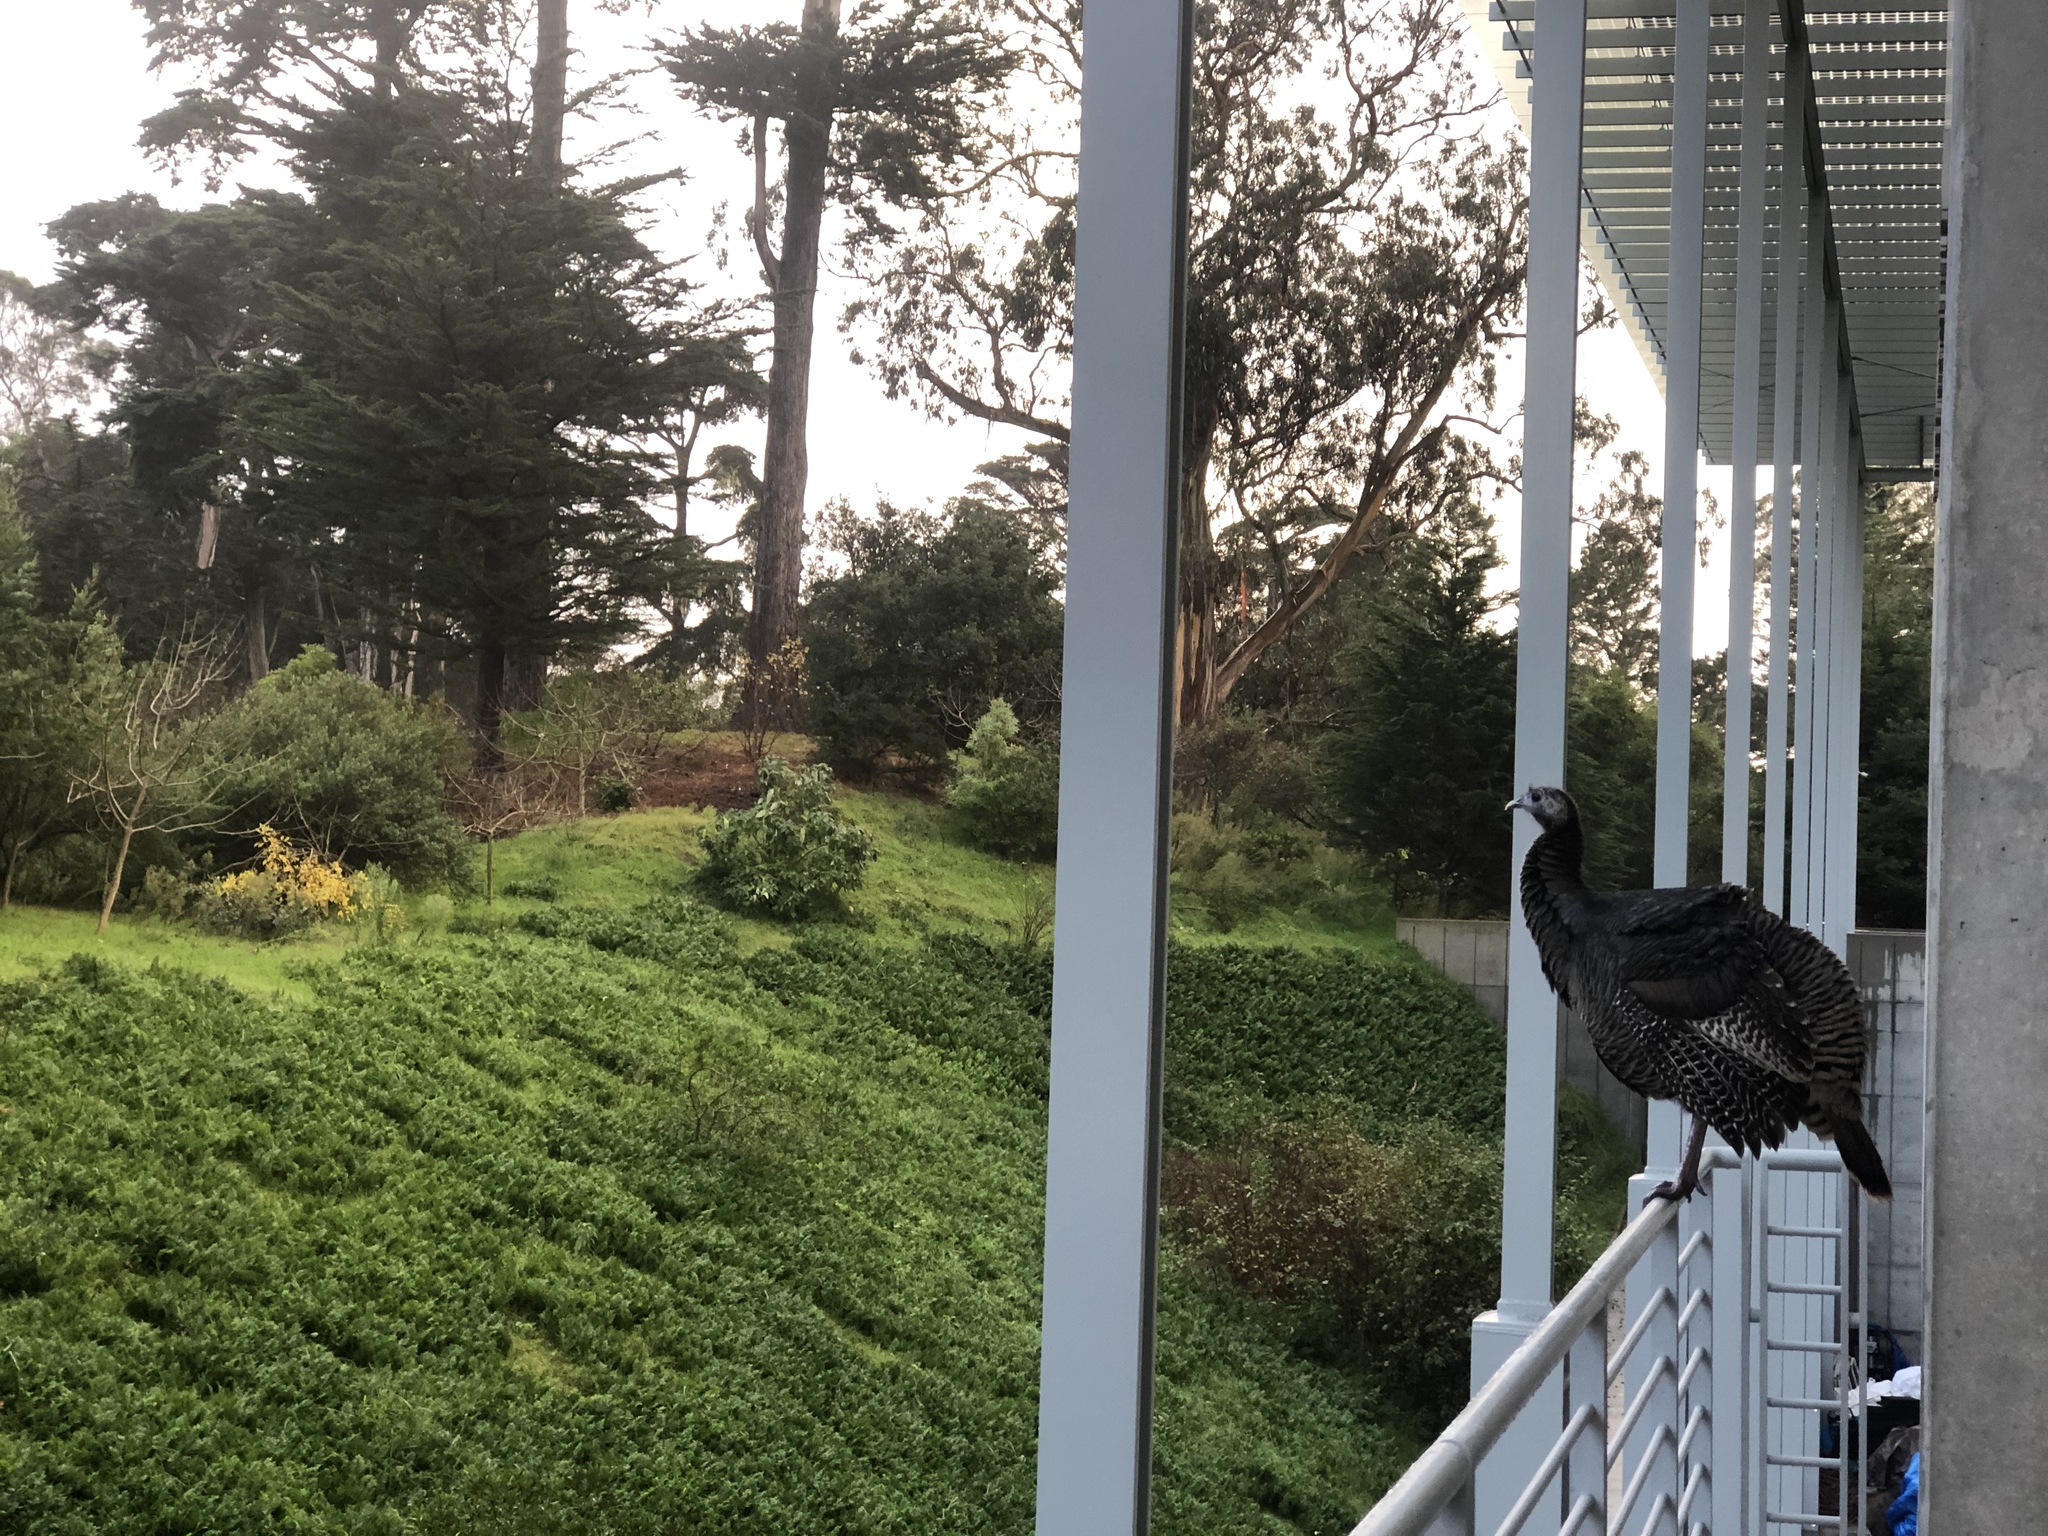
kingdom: Animalia
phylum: Chordata
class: Aves
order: Galliformes
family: Phasianidae
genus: Meleagris
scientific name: Meleagris gallopavo
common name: Wild turkey
